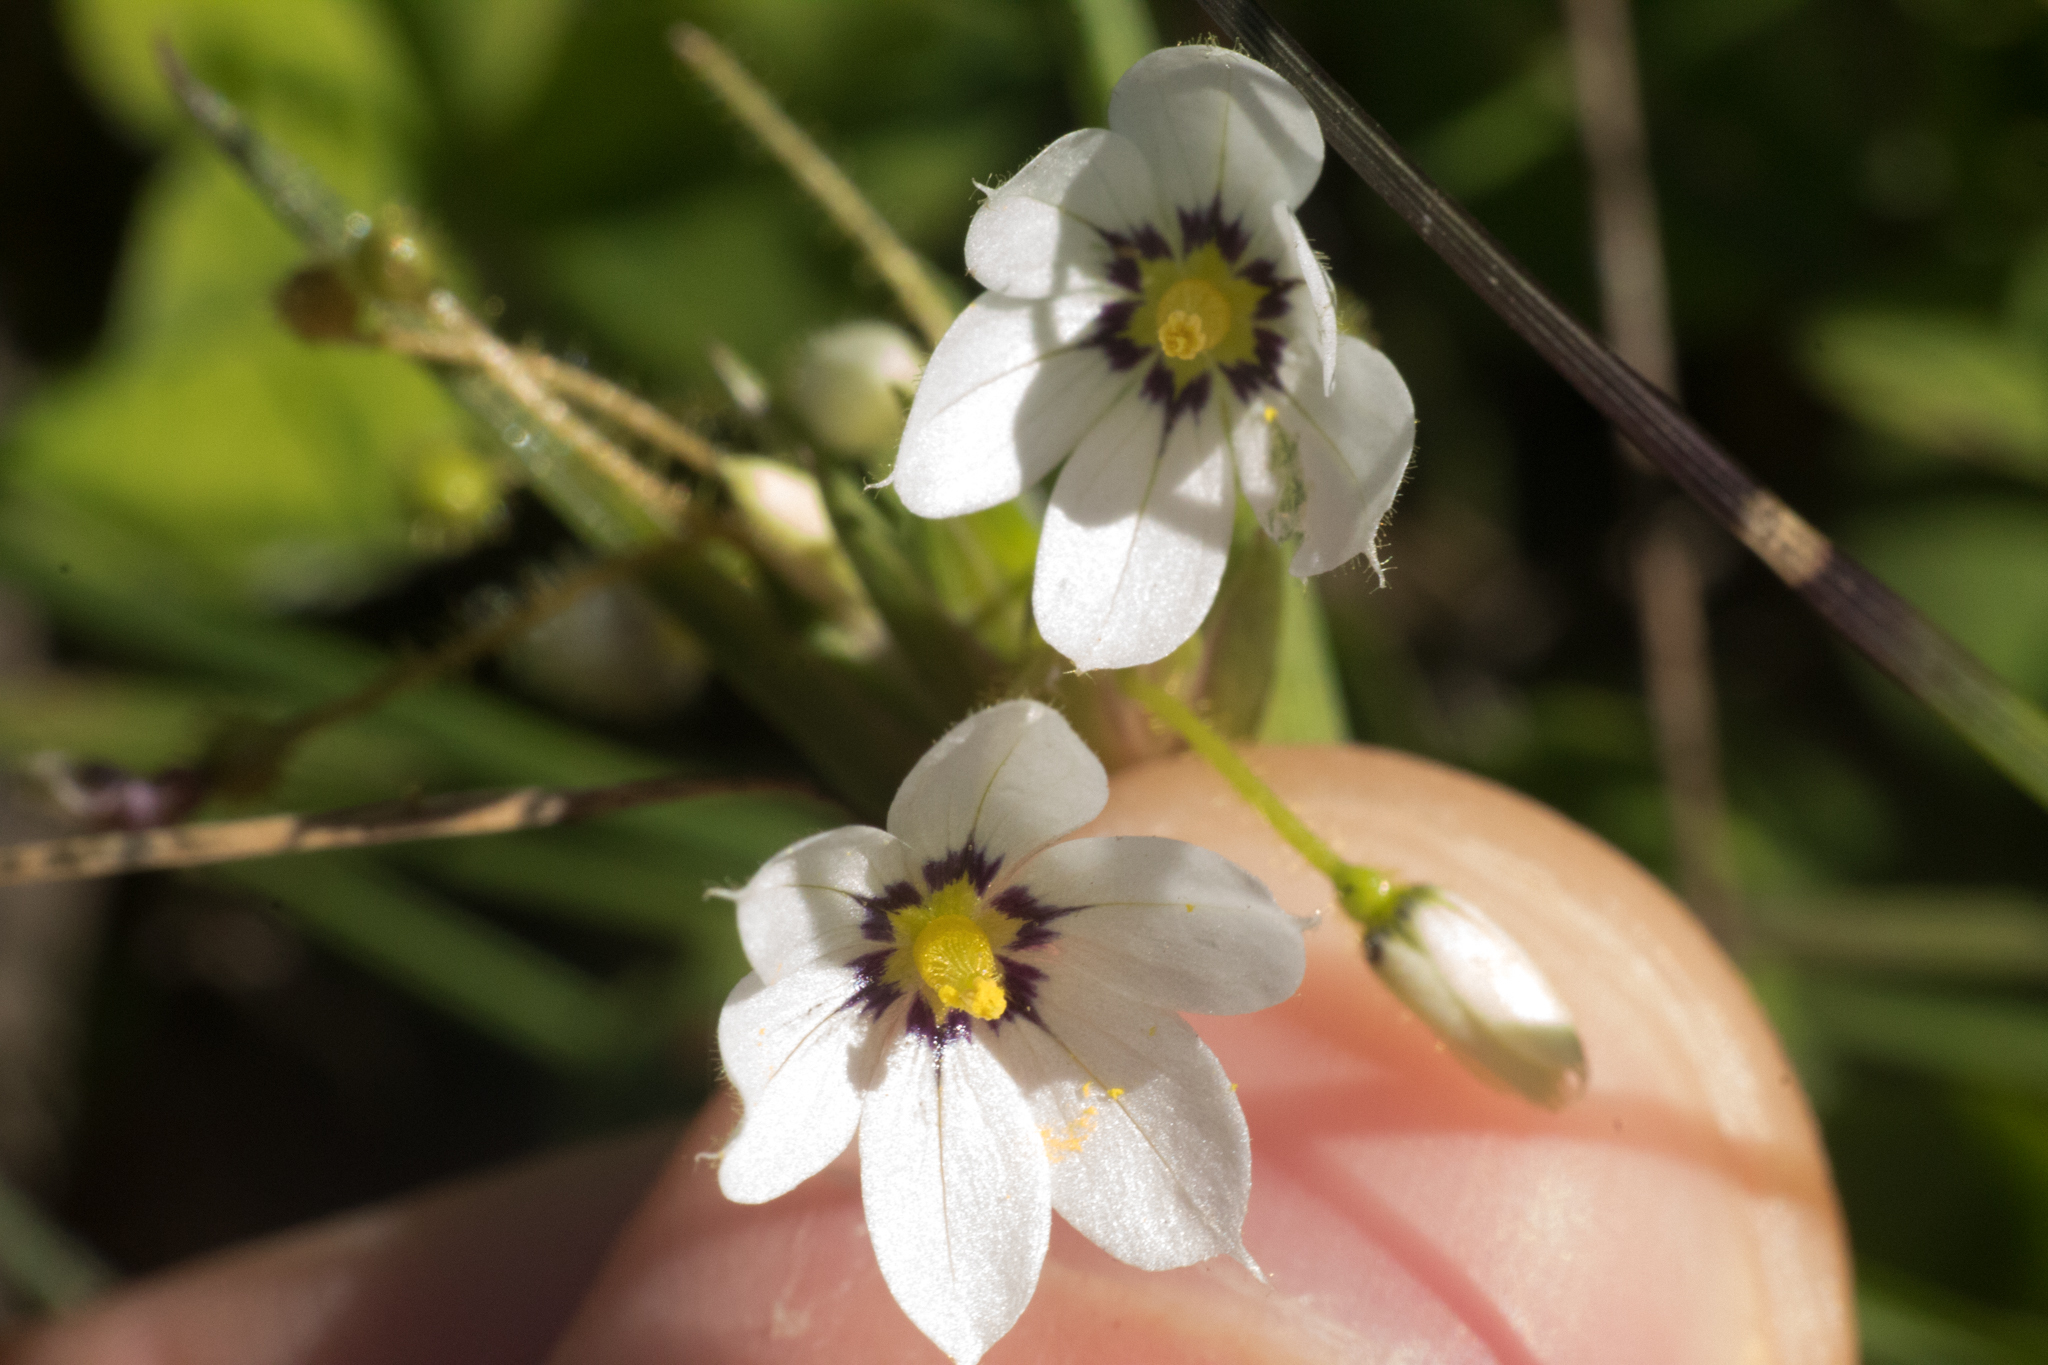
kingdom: Plantae
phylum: Tracheophyta
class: Liliopsida
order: Asparagales
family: Iridaceae
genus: Sisyrinchium
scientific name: Sisyrinchium sellowianum
